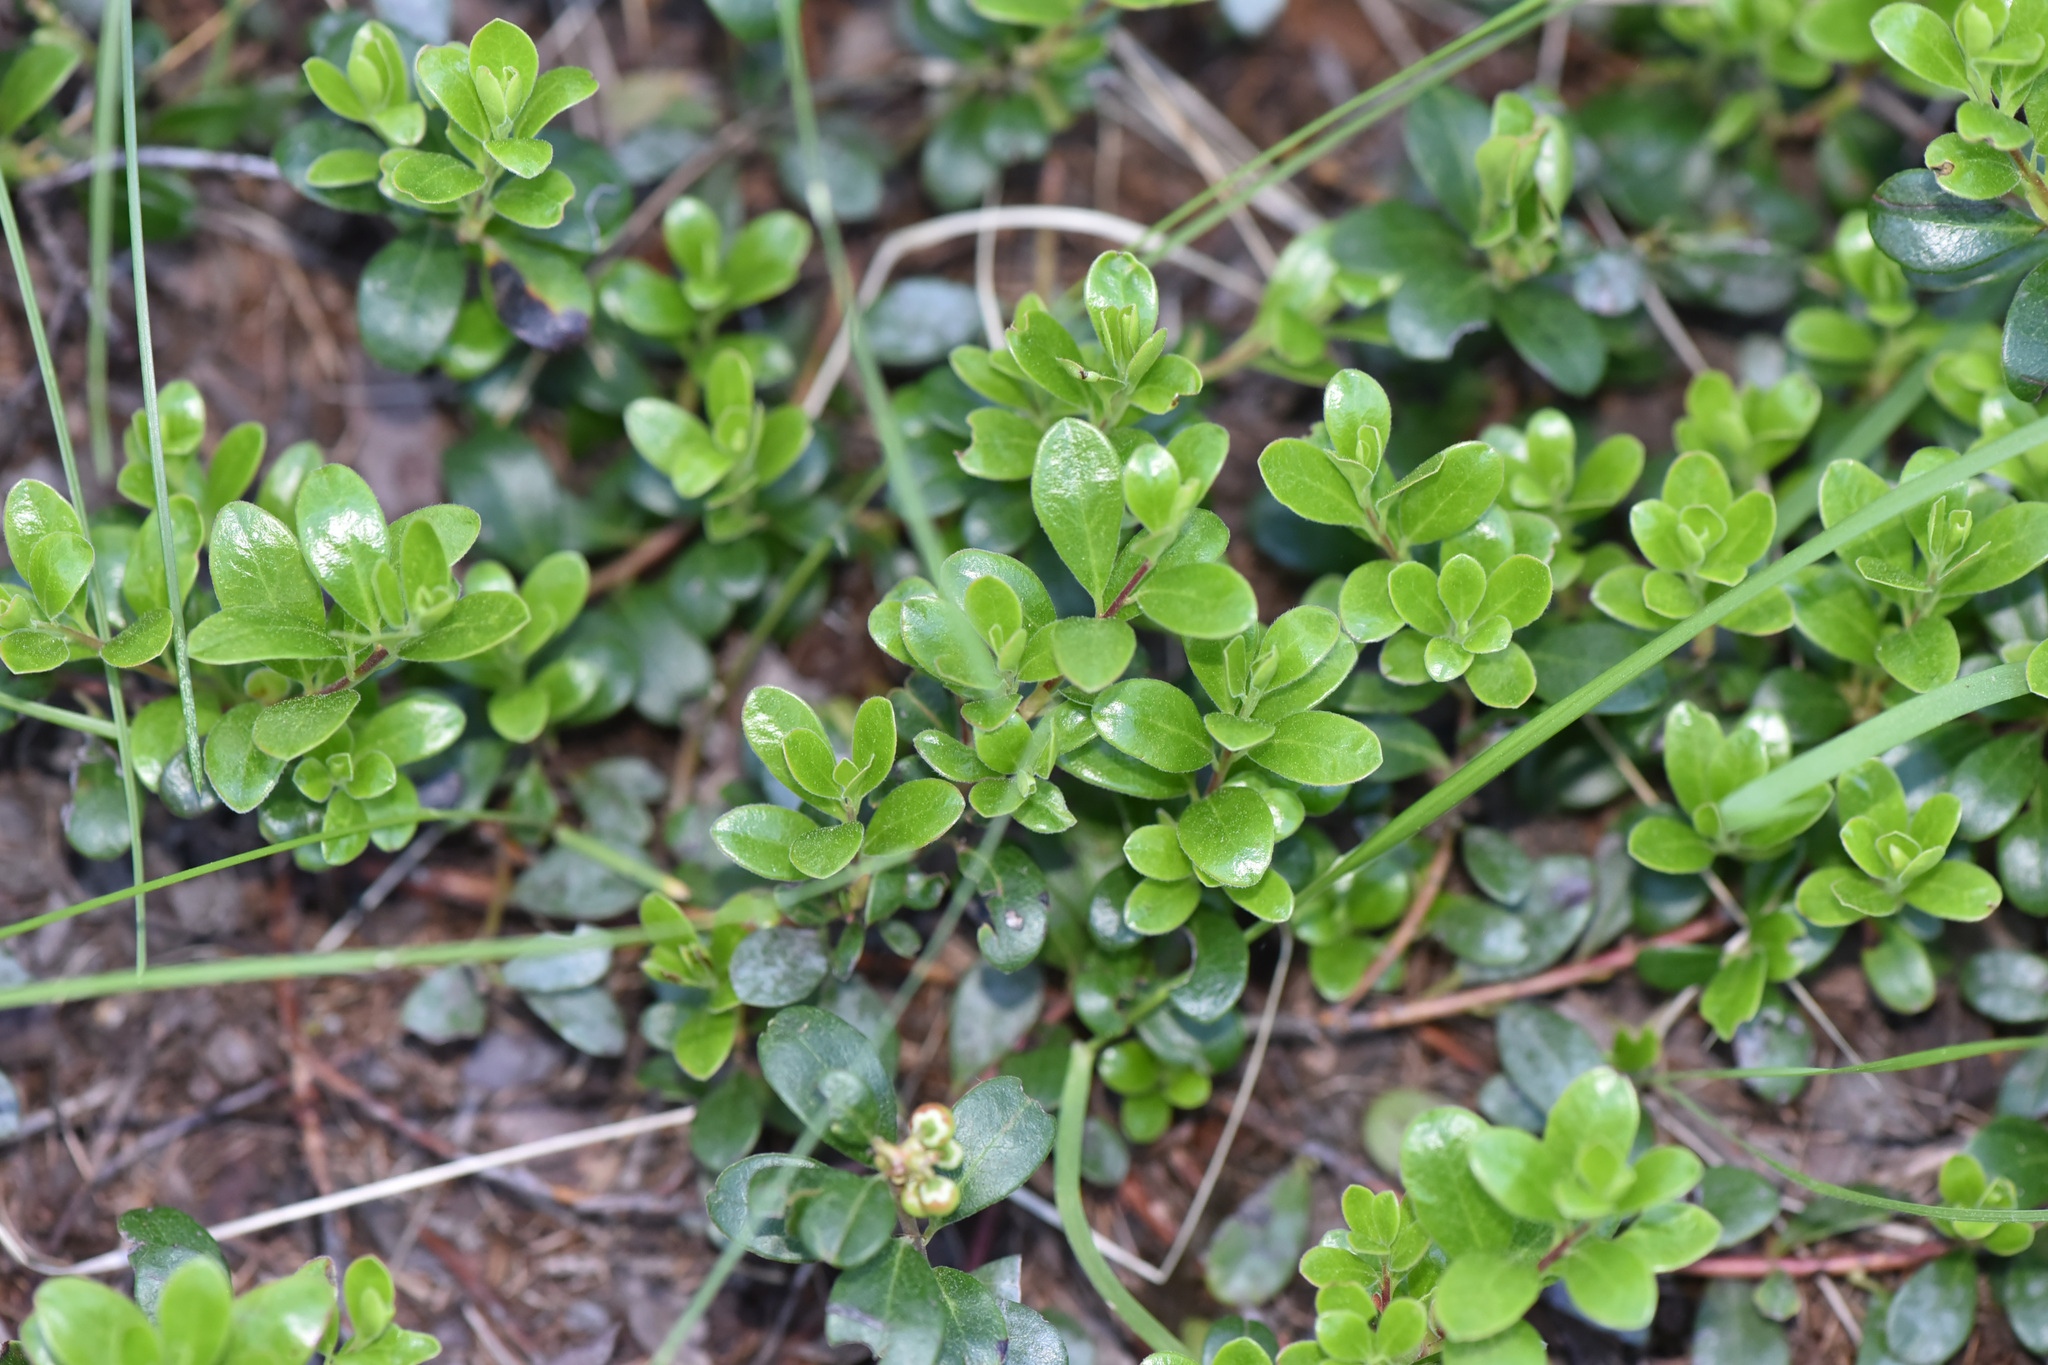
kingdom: Plantae
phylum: Tracheophyta
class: Magnoliopsida
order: Ericales
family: Ericaceae
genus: Arctostaphylos
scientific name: Arctostaphylos uva-ursi
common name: Bearberry
